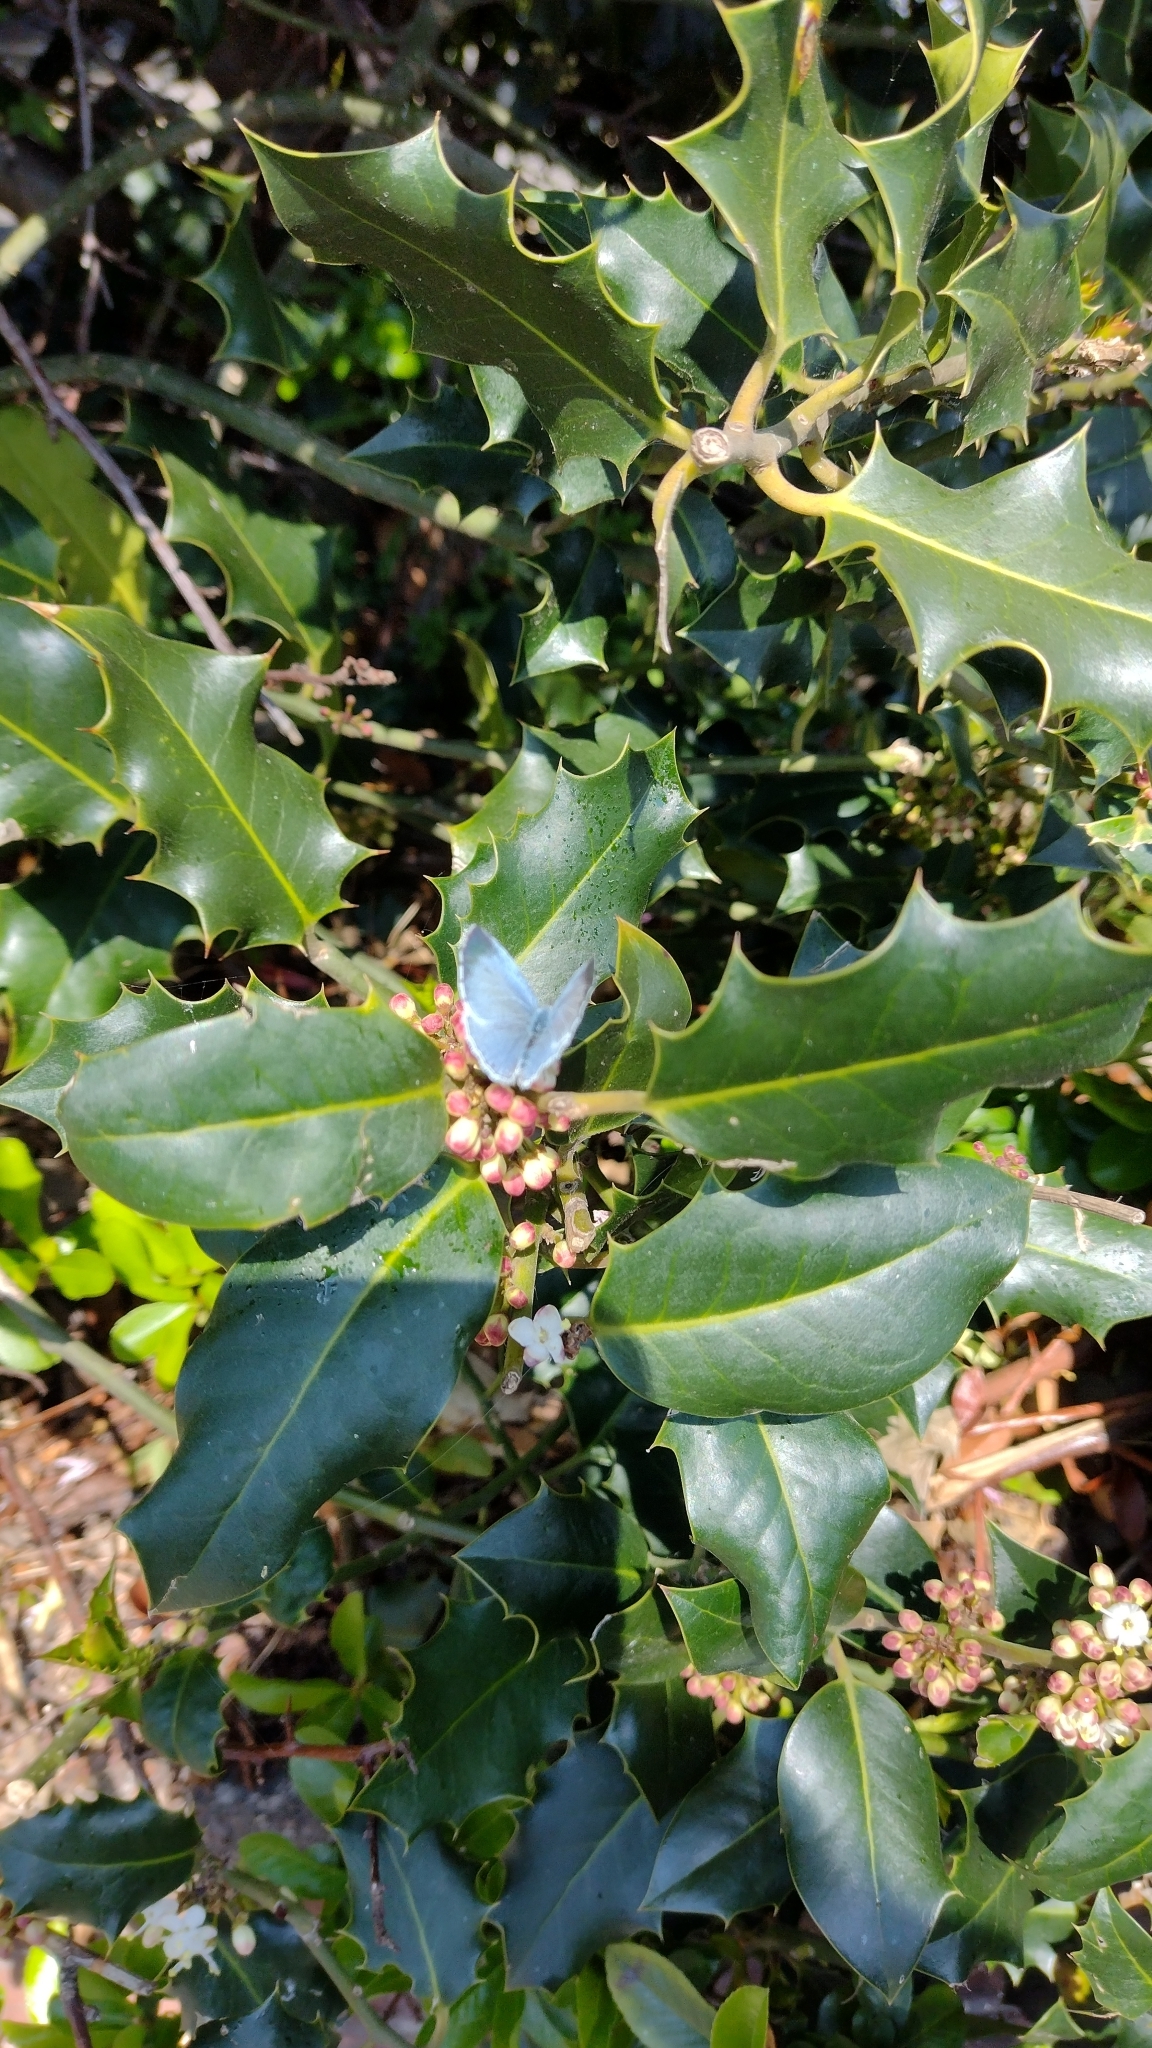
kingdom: Animalia
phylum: Arthropoda
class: Insecta
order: Lepidoptera
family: Lycaenidae
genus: Celastrina
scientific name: Celastrina argiolus
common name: Holly blue
